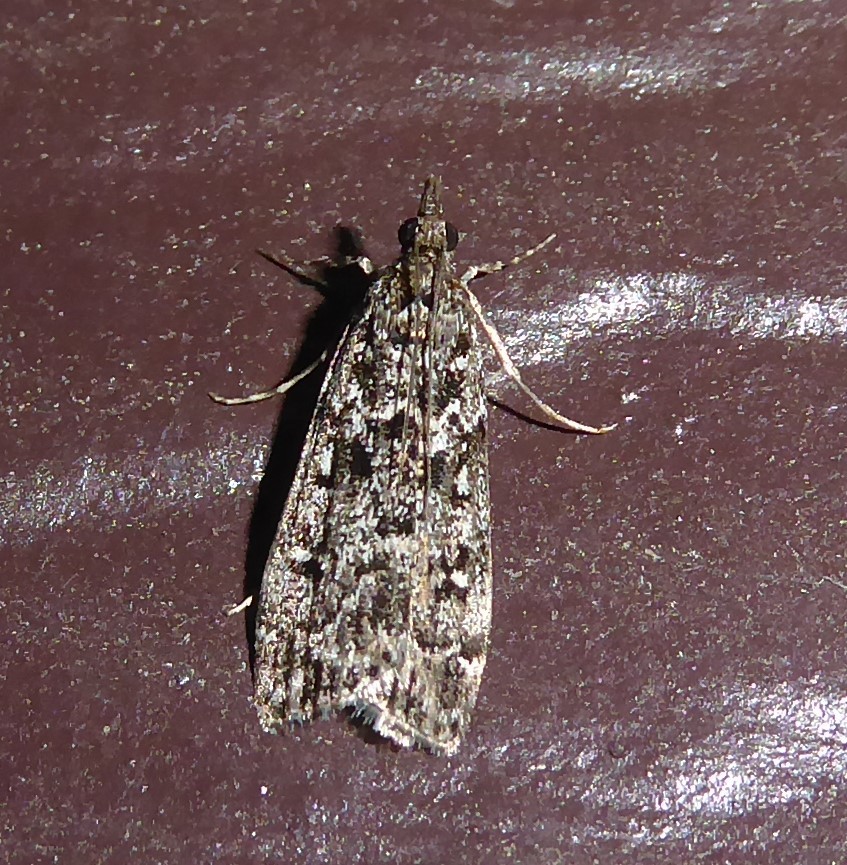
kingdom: Animalia
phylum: Arthropoda
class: Insecta
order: Lepidoptera
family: Crambidae
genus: Eudonia
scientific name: Eudonia philerga
